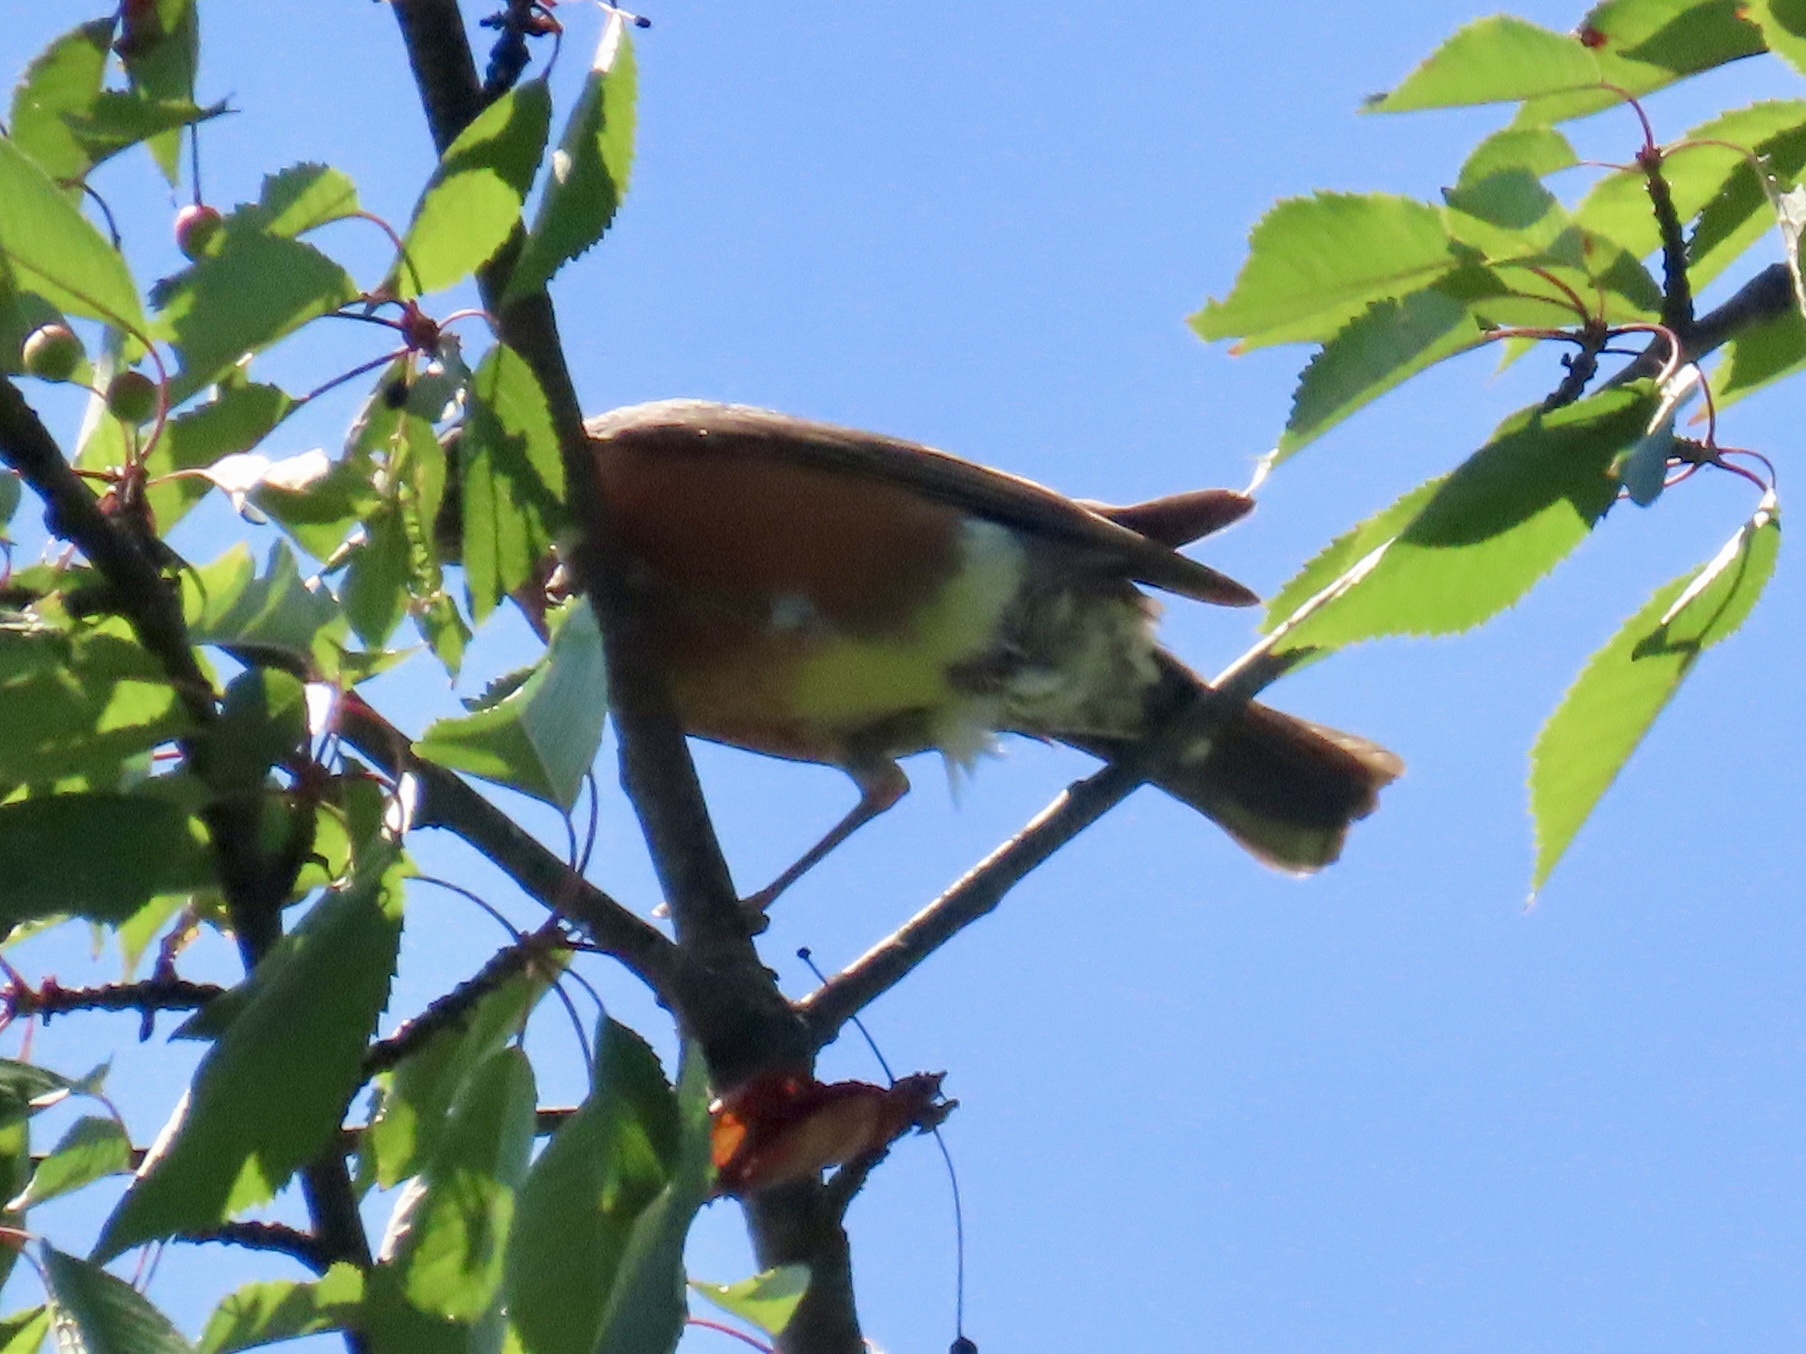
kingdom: Animalia
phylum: Chordata
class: Aves
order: Passeriformes
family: Turdidae
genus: Turdus
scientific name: Turdus migratorius
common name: American robin
